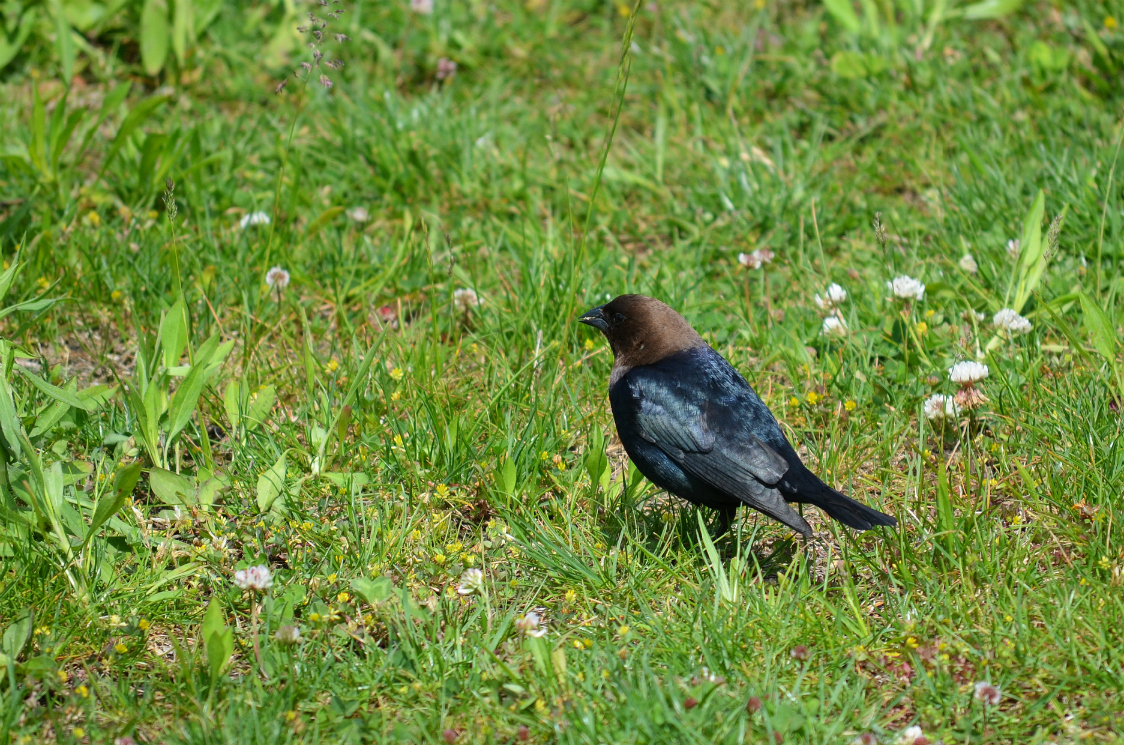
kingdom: Animalia
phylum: Chordata
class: Aves
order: Passeriformes
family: Icteridae
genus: Molothrus
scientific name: Molothrus ater
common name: Brown-headed cowbird
